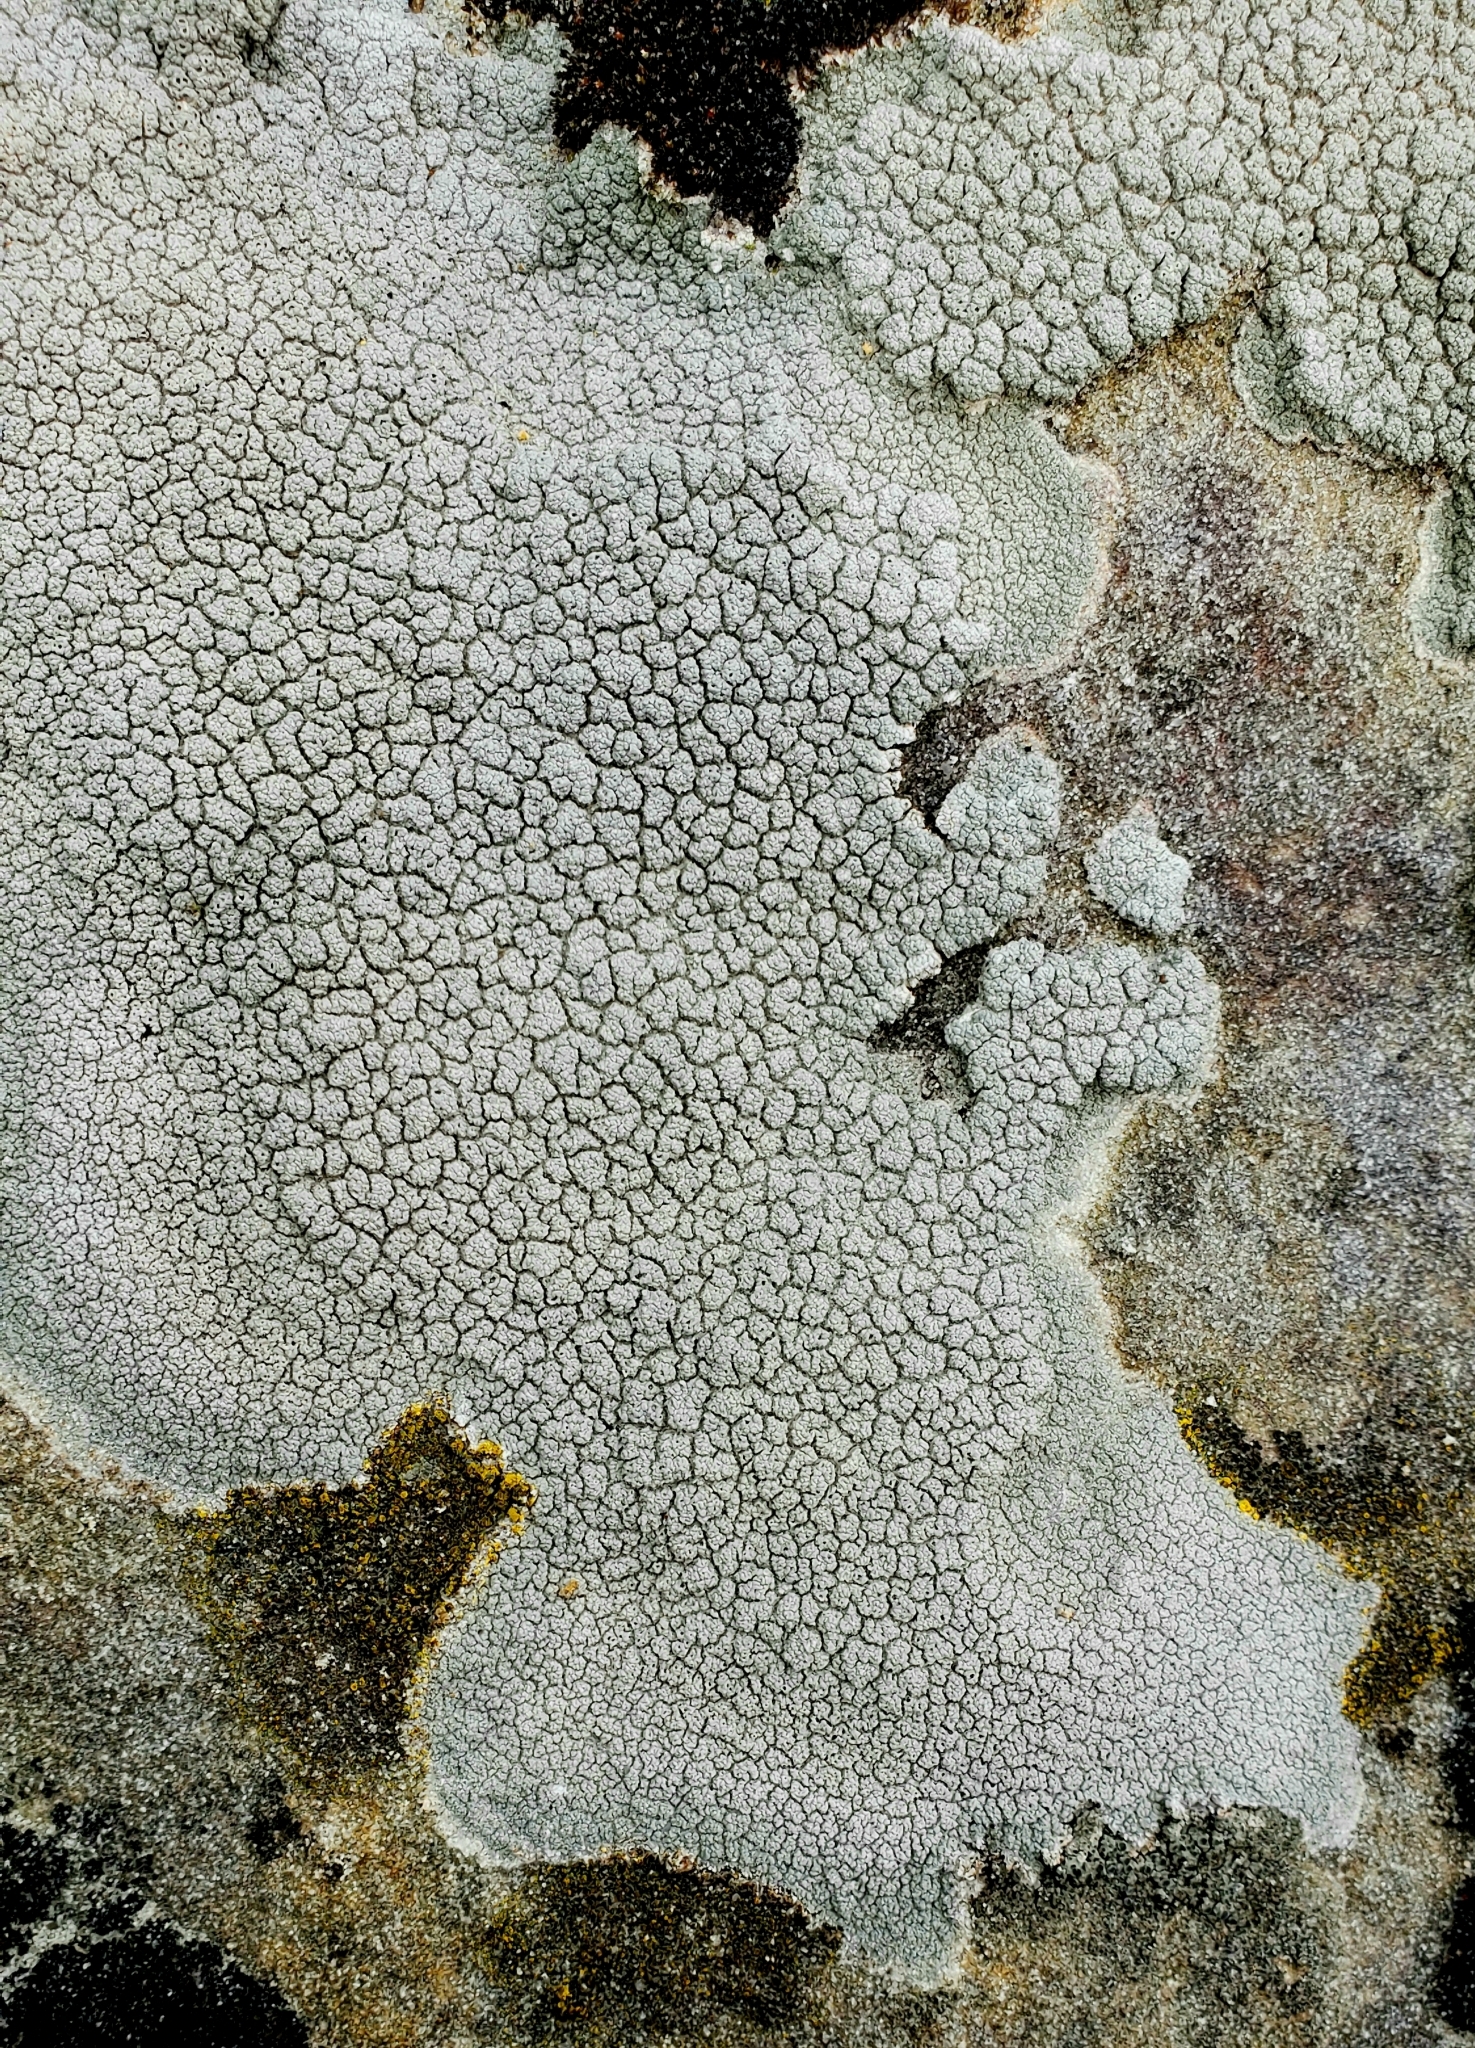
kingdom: Fungi
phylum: Ascomycota
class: Lecanoromycetes
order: Ostropales
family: Graphidaceae
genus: Diploschistes
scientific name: Diploschistes scruposus
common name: Crater lichen
